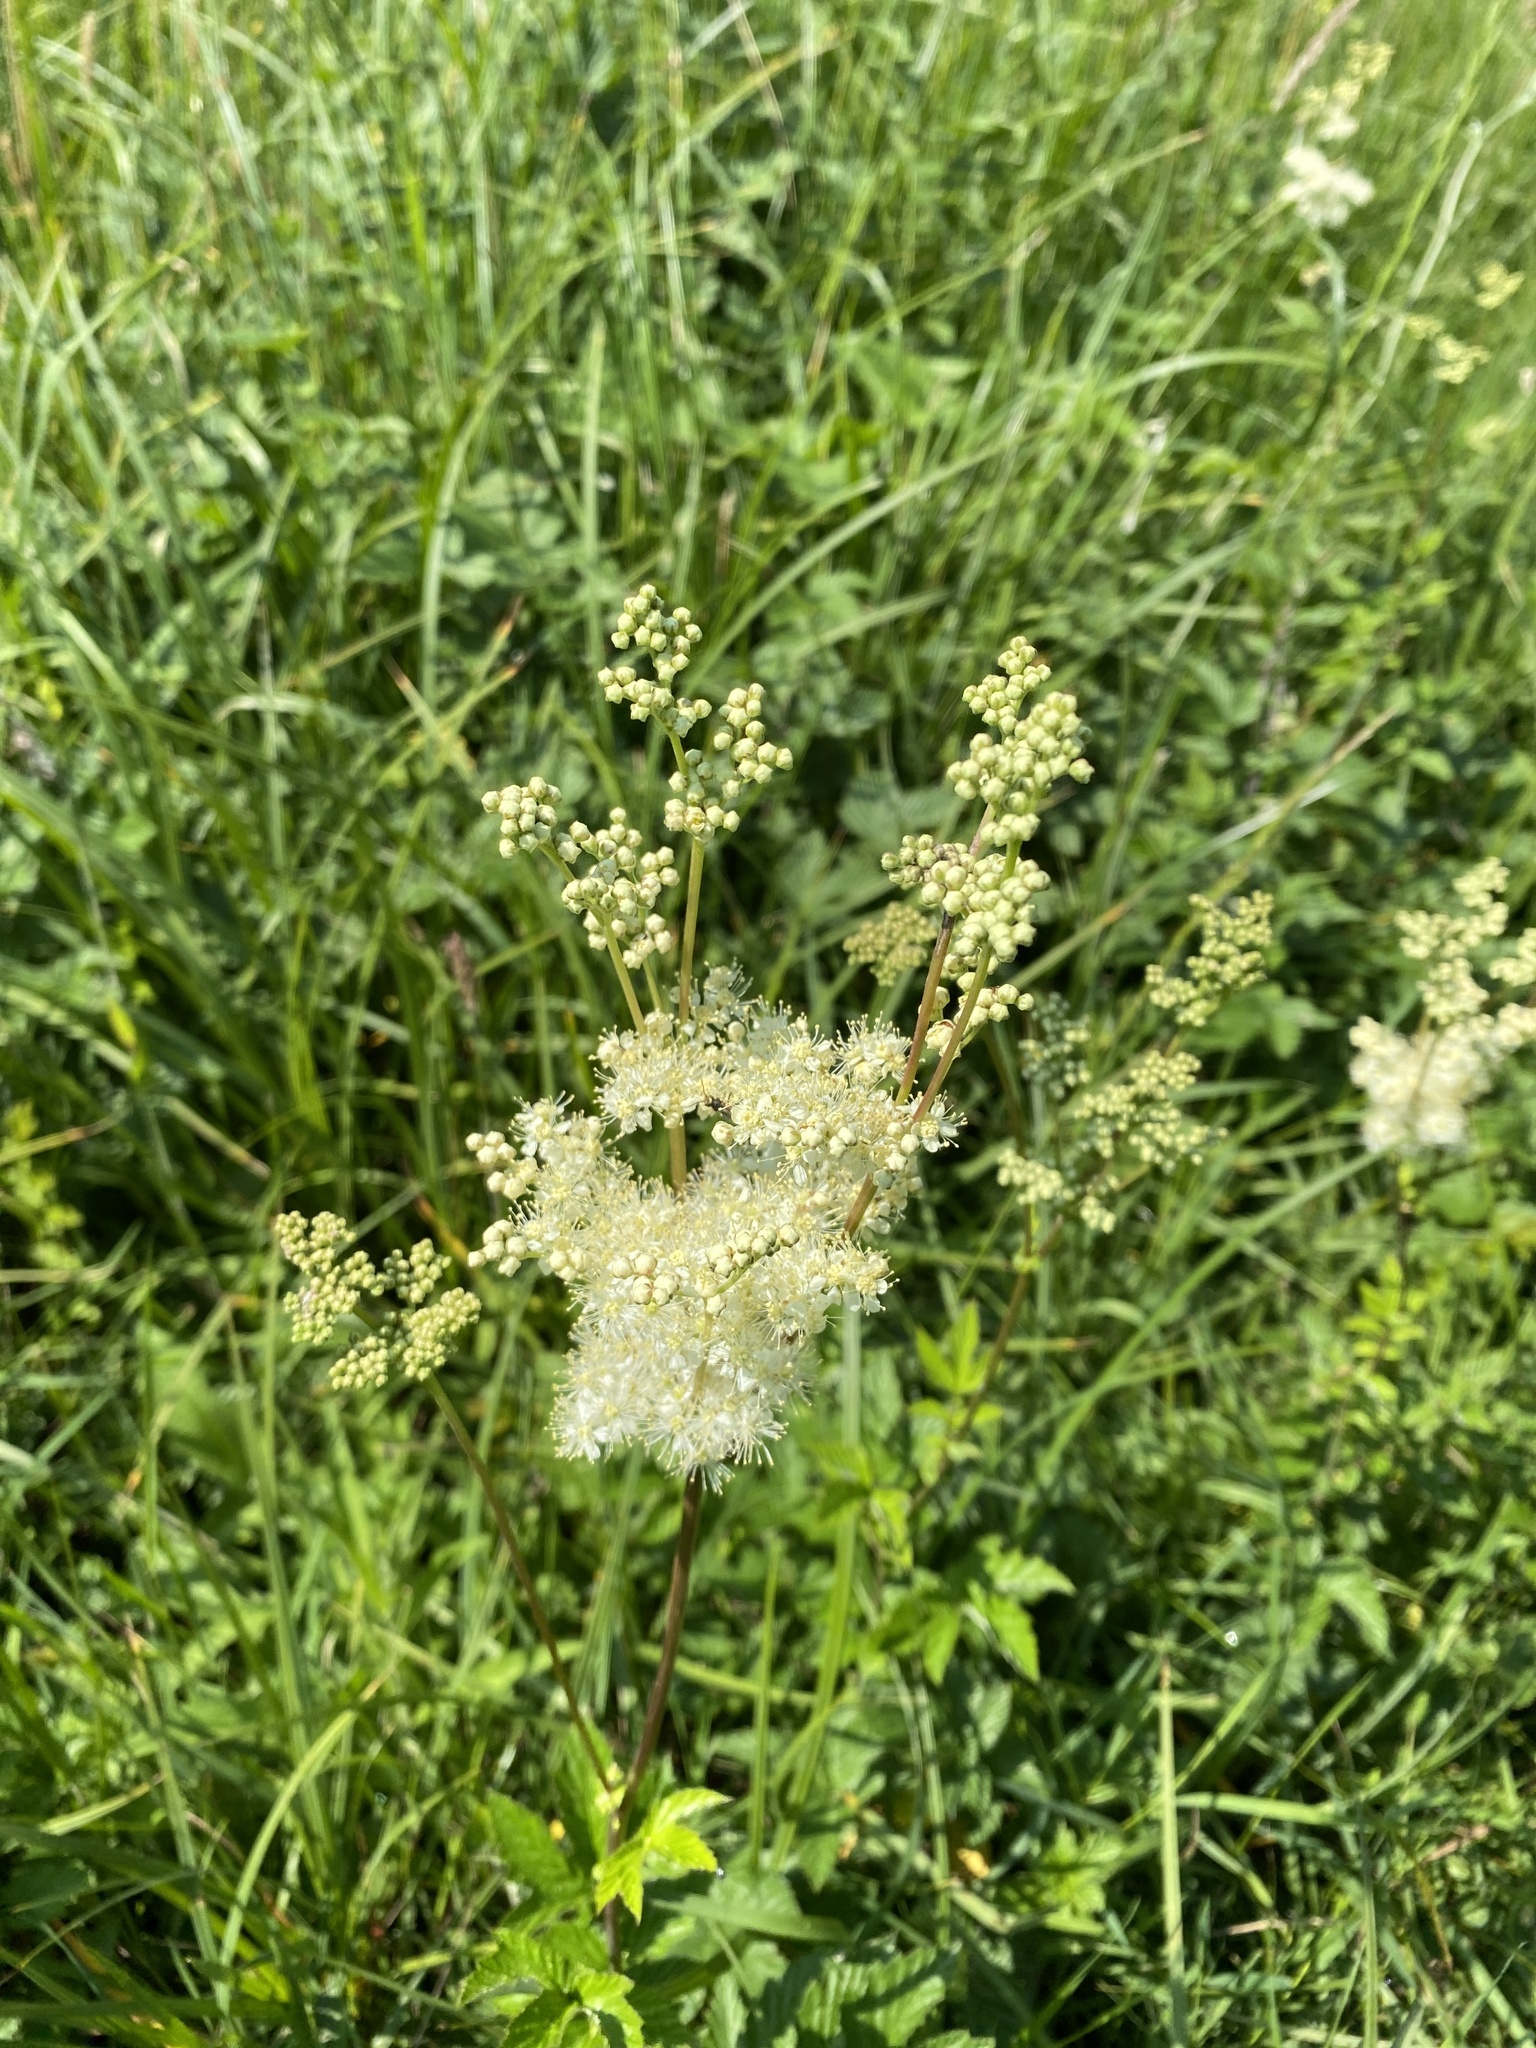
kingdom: Plantae
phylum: Tracheophyta
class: Magnoliopsida
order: Rosales
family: Rosaceae
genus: Filipendula
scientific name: Filipendula ulmaria
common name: Meadowsweet
